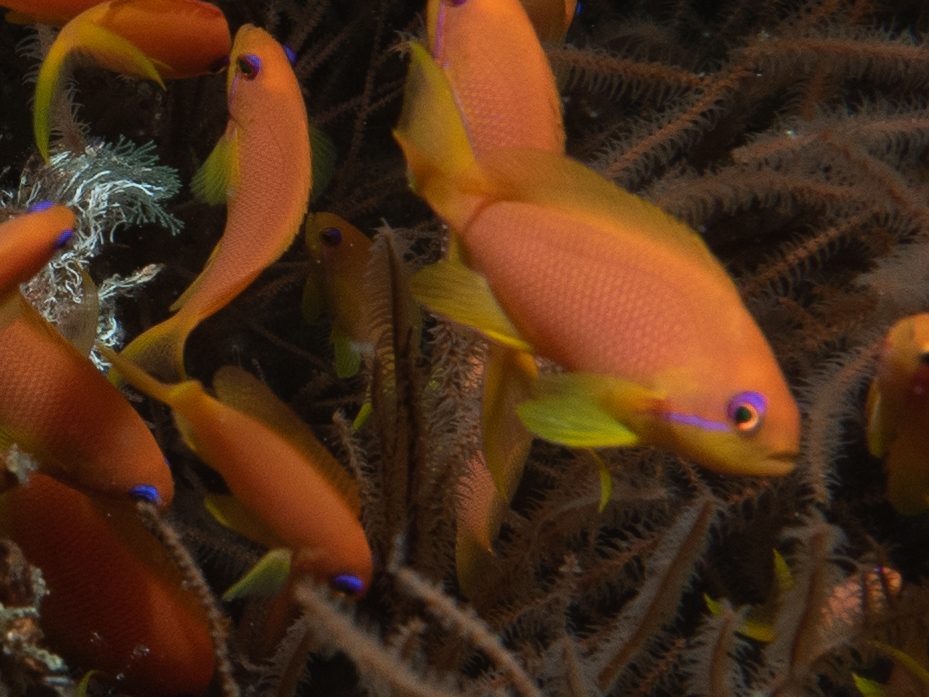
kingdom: Animalia
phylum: Chordata
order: Perciformes
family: Serranidae
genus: Pseudanthias
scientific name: Pseudanthias squamipinnis
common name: Scalefin anthias
